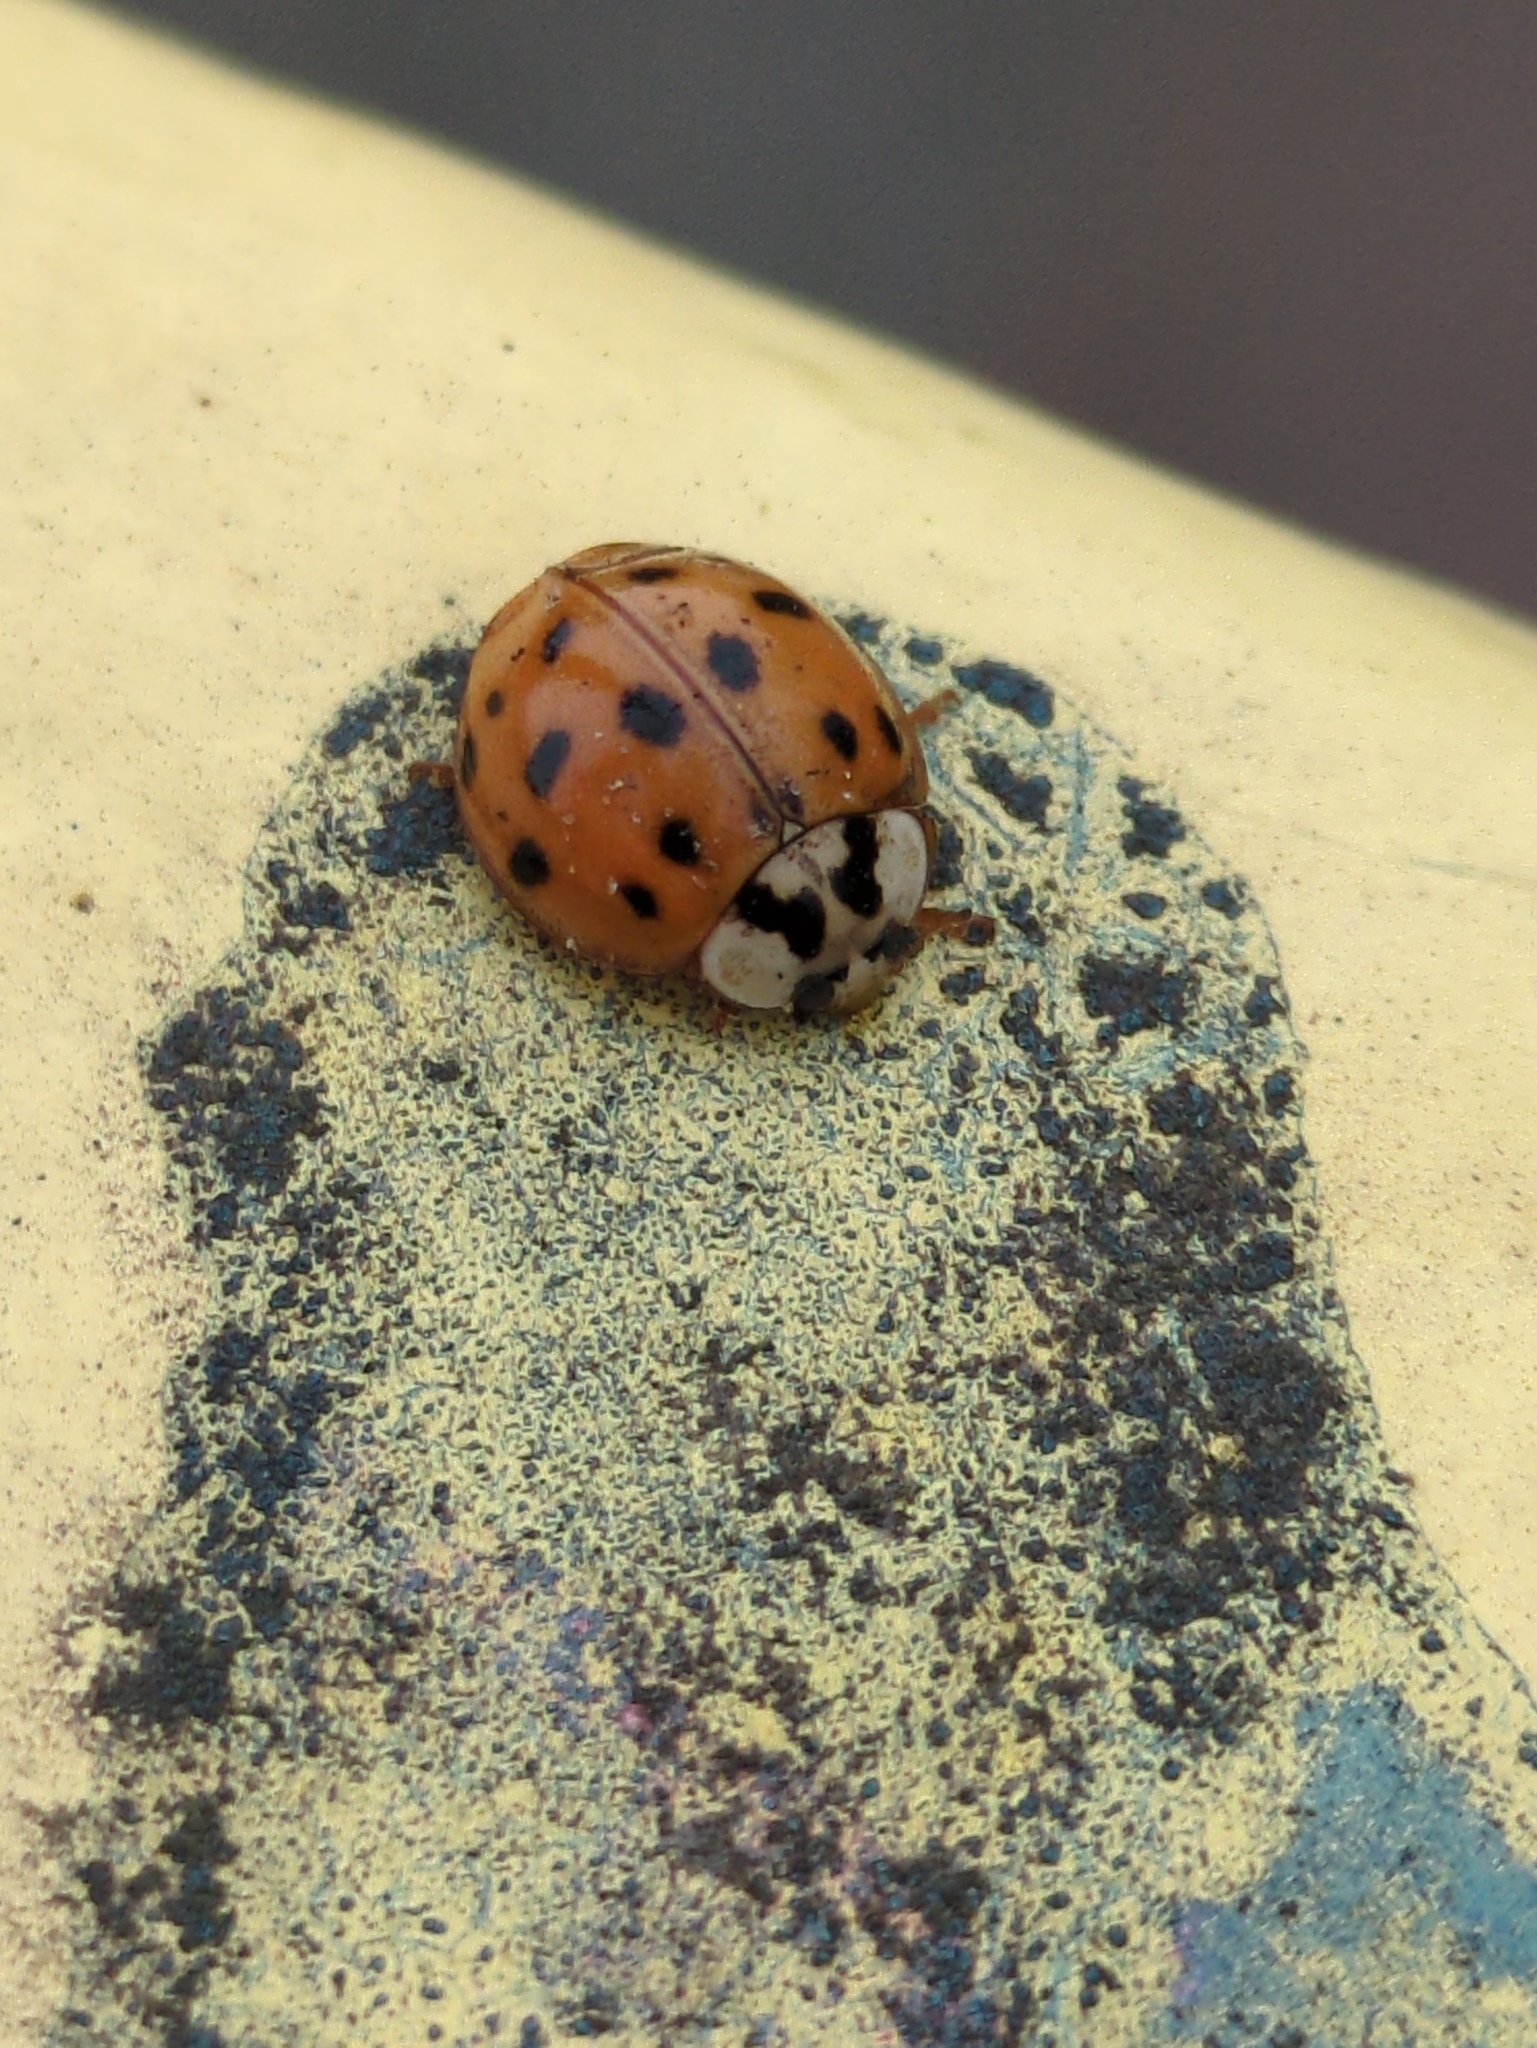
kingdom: Animalia
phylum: Arthropoda
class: Insecta
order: Coleoptera
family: Coccinellidae
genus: Harmonia
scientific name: Harmonia axyridis
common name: Harlequin ladybird
